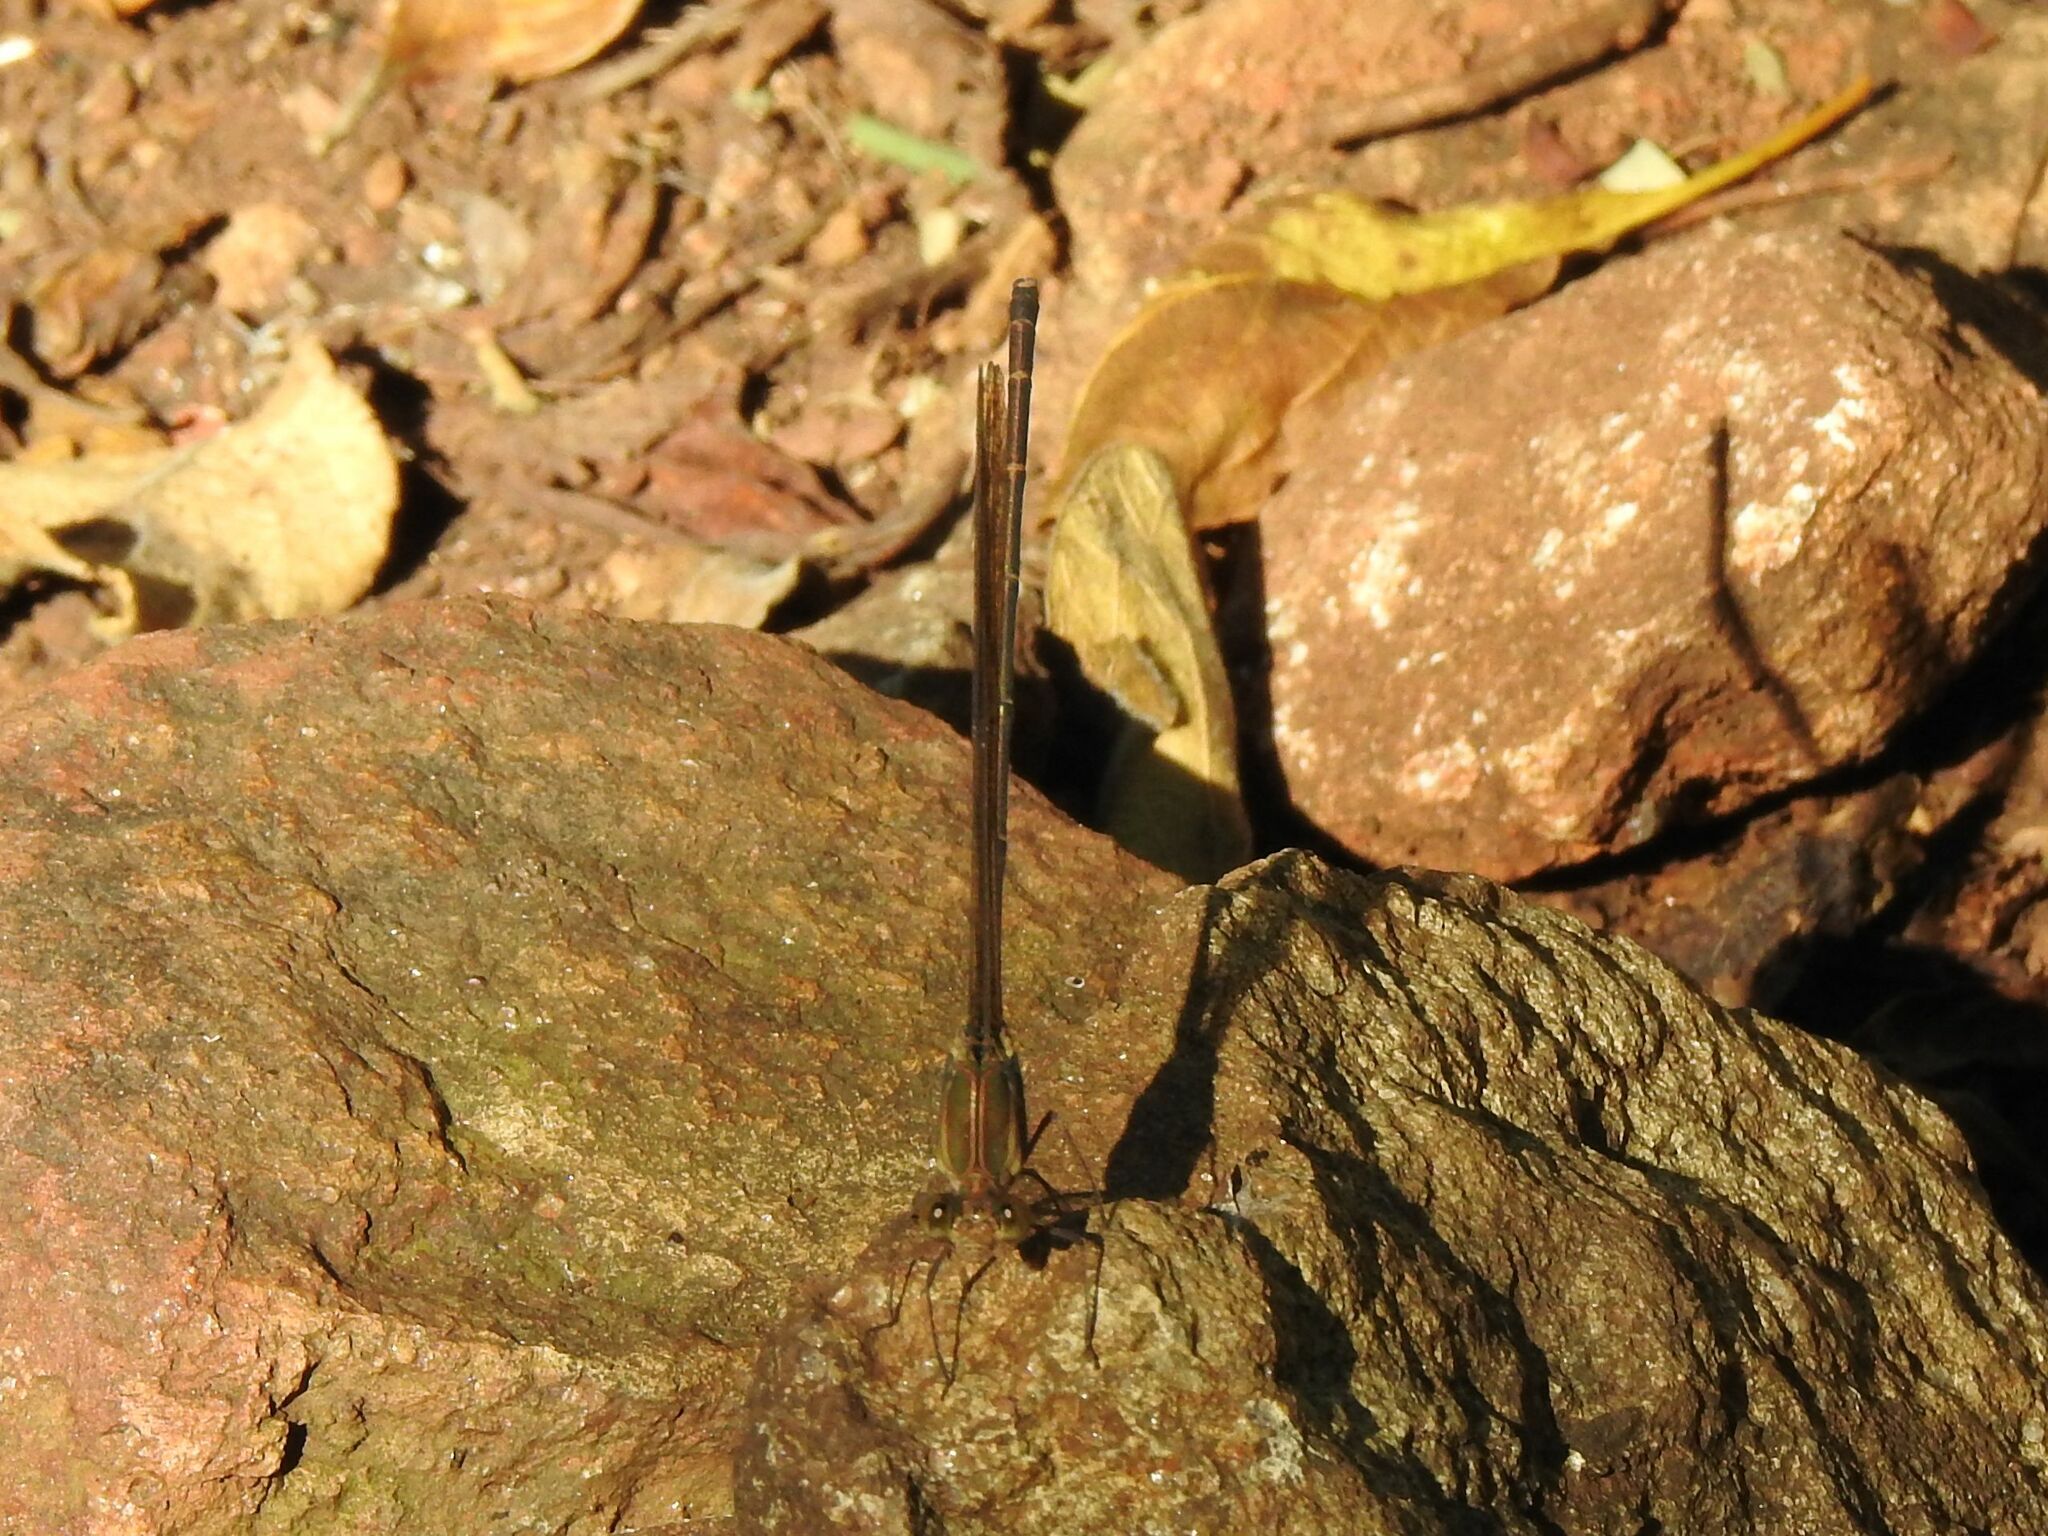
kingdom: Animalia
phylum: Arthropoda
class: Insecta
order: Odonata
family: Calopterygidae
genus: Phaon
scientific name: Phaon iridipennis
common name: Glistening demoiselle
